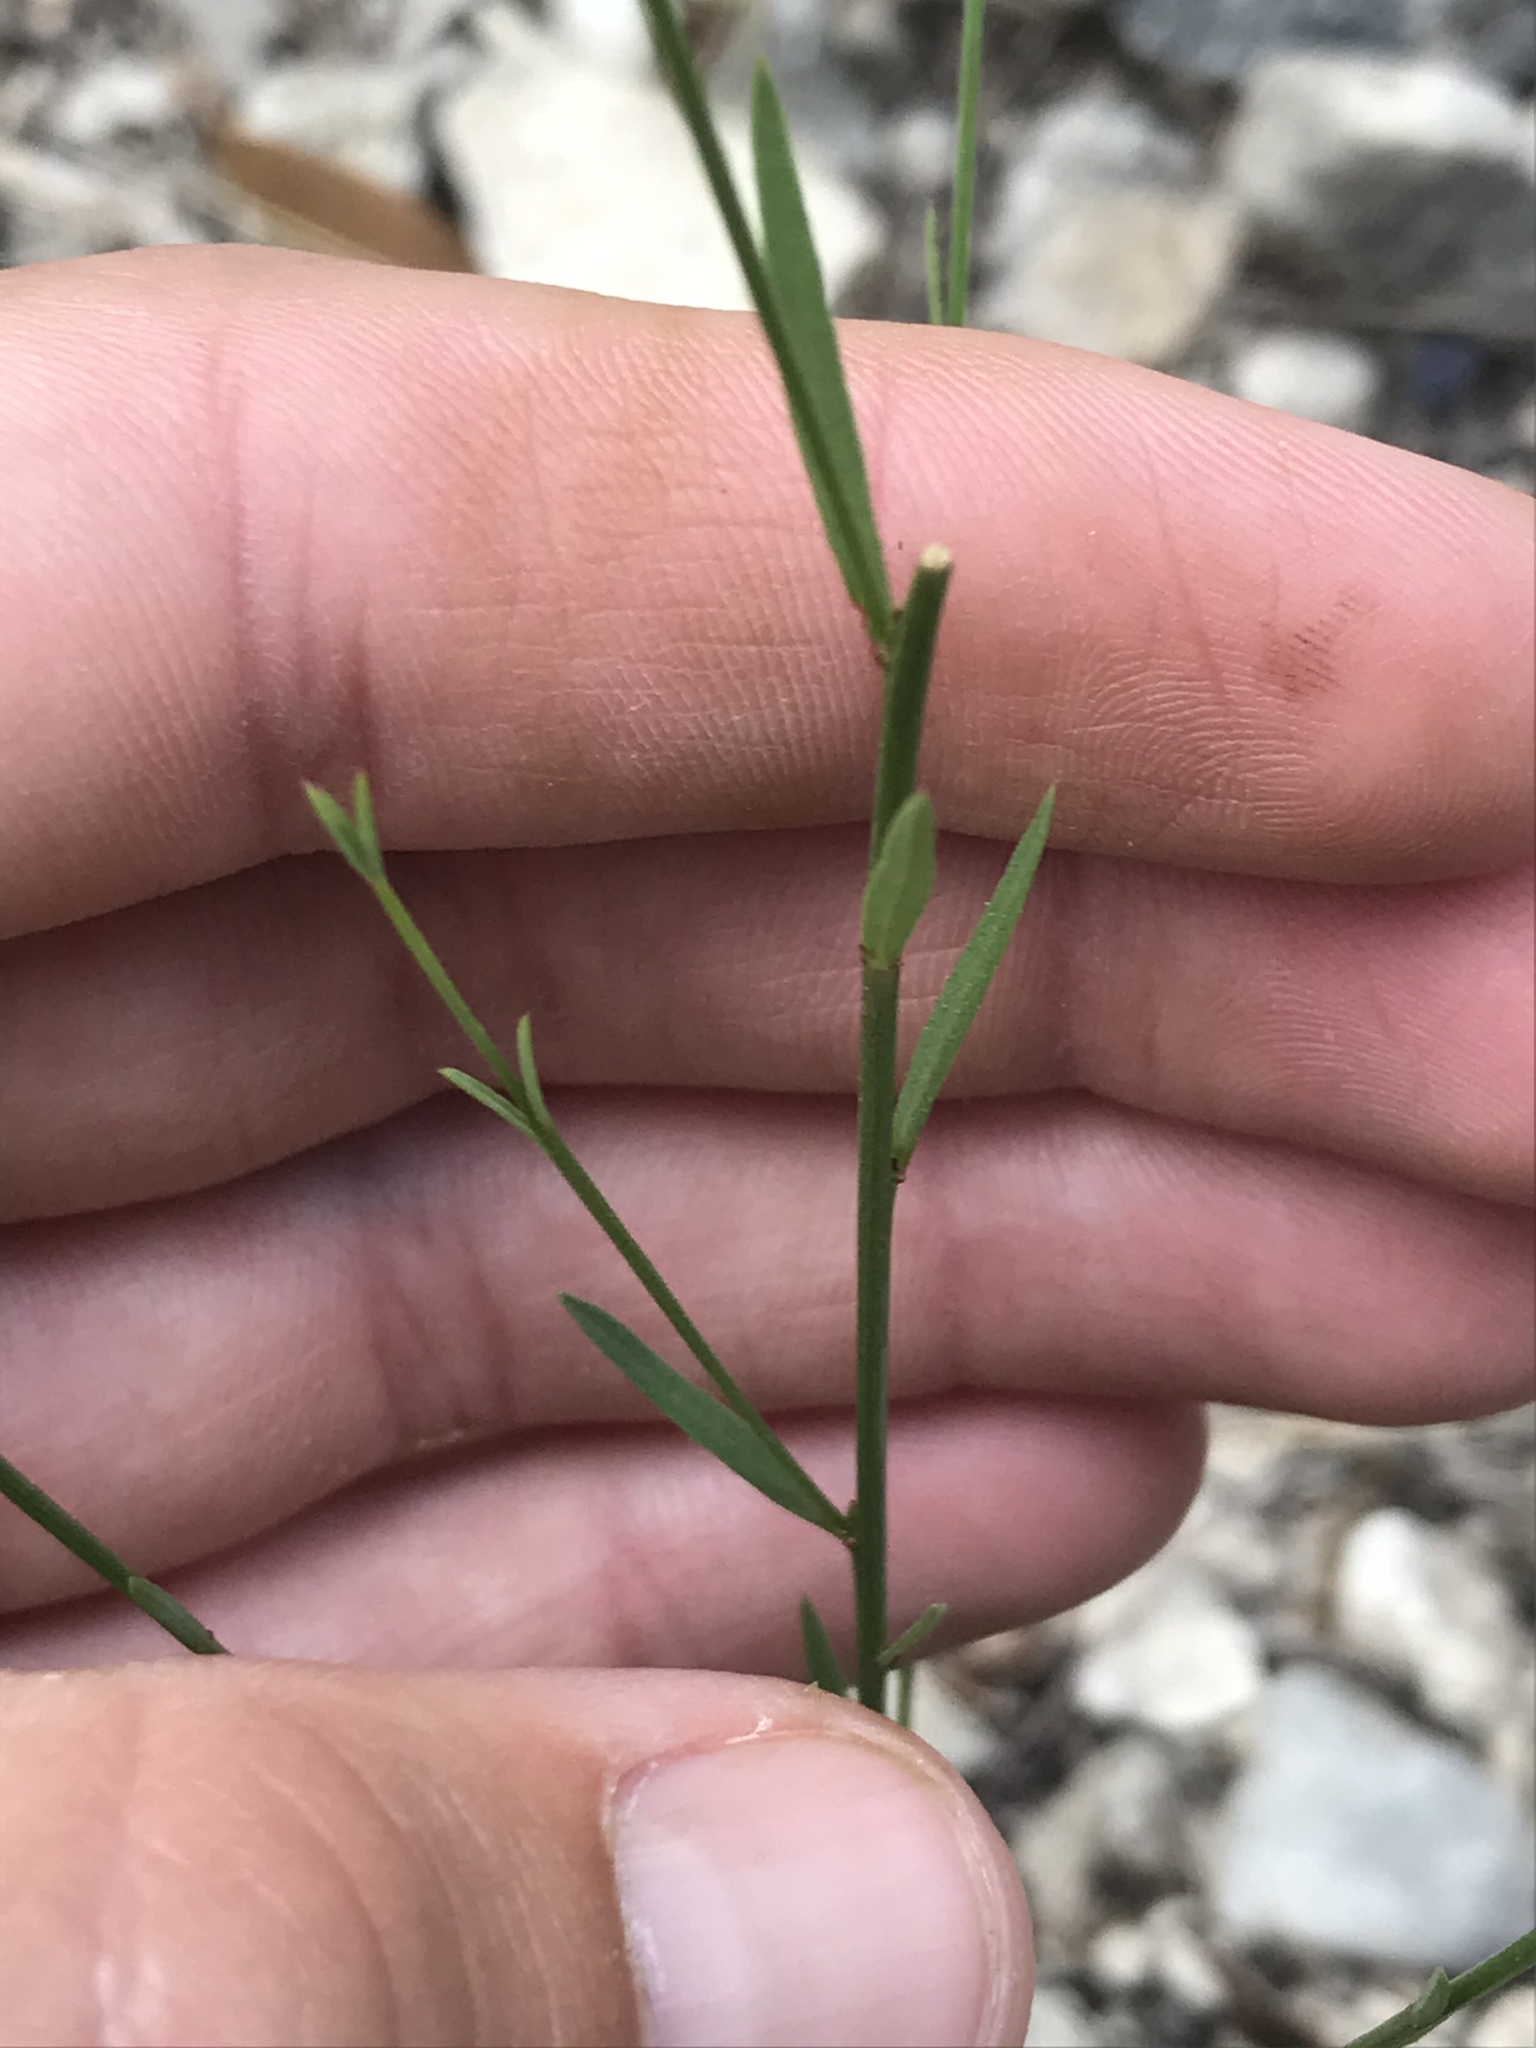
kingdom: Plantae
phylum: Tracheophyta
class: Magnoliopsida
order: Malpighiales
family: Linaceae
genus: Linum
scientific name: Linum rupestre
